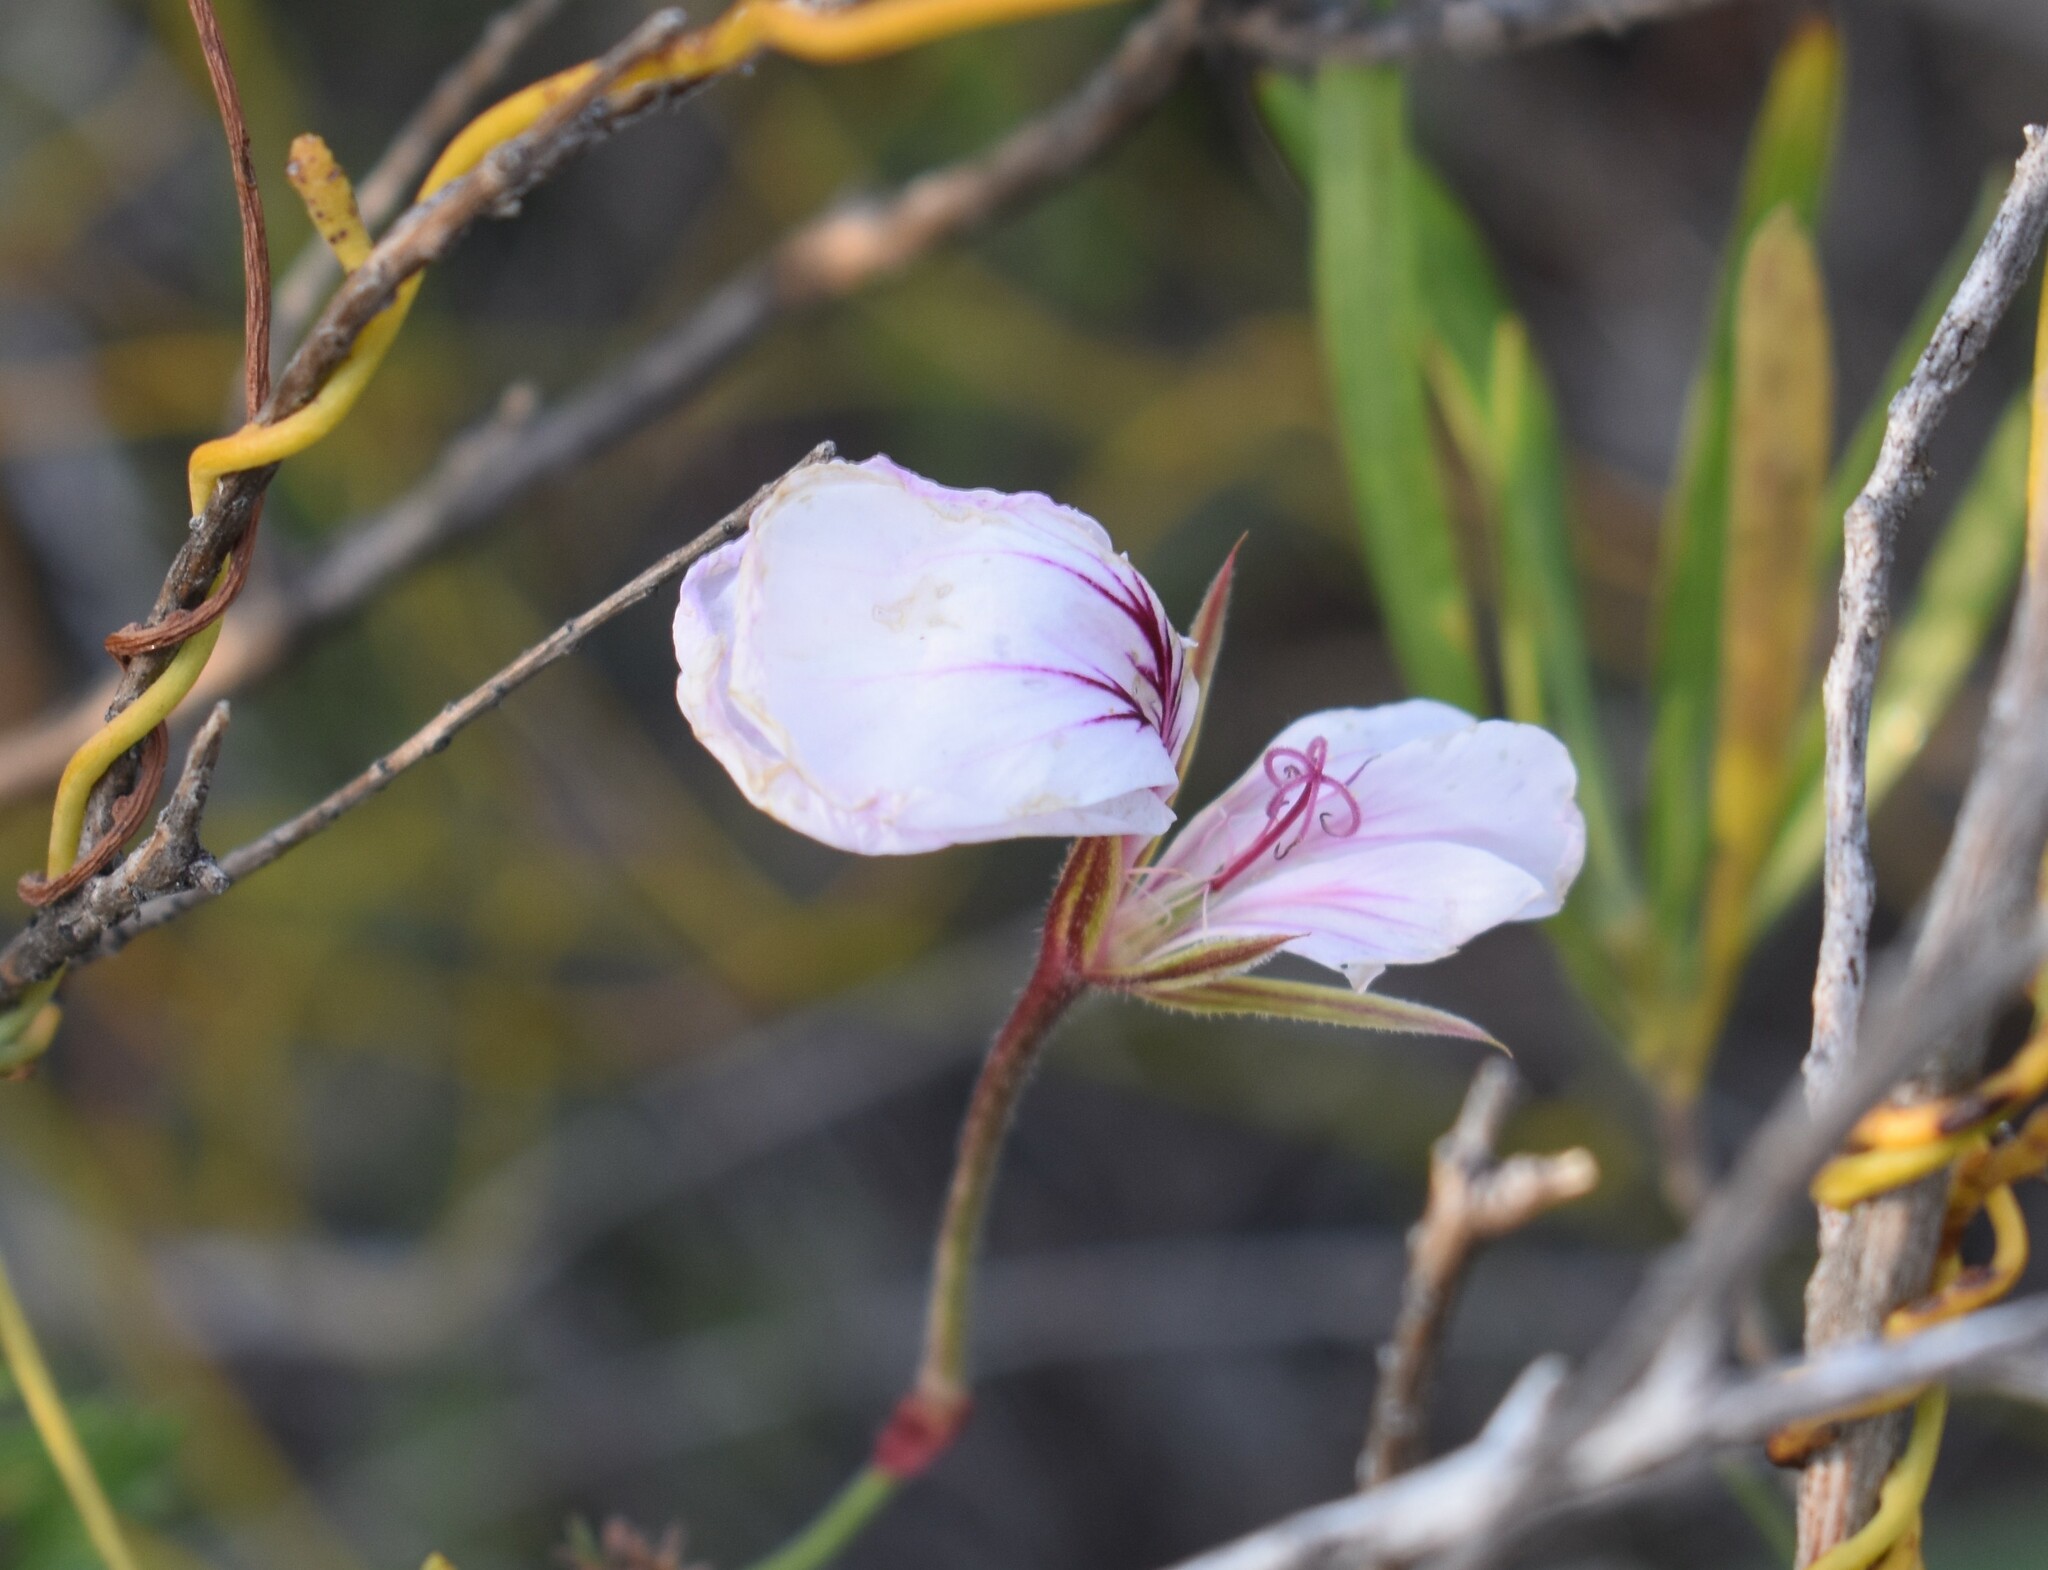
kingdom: Plantae
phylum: Tracheophyta
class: Magnoliopsida
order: Geraniales
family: Geraniaceae
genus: Pelargonium
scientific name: Pelargonium caucalifolium
